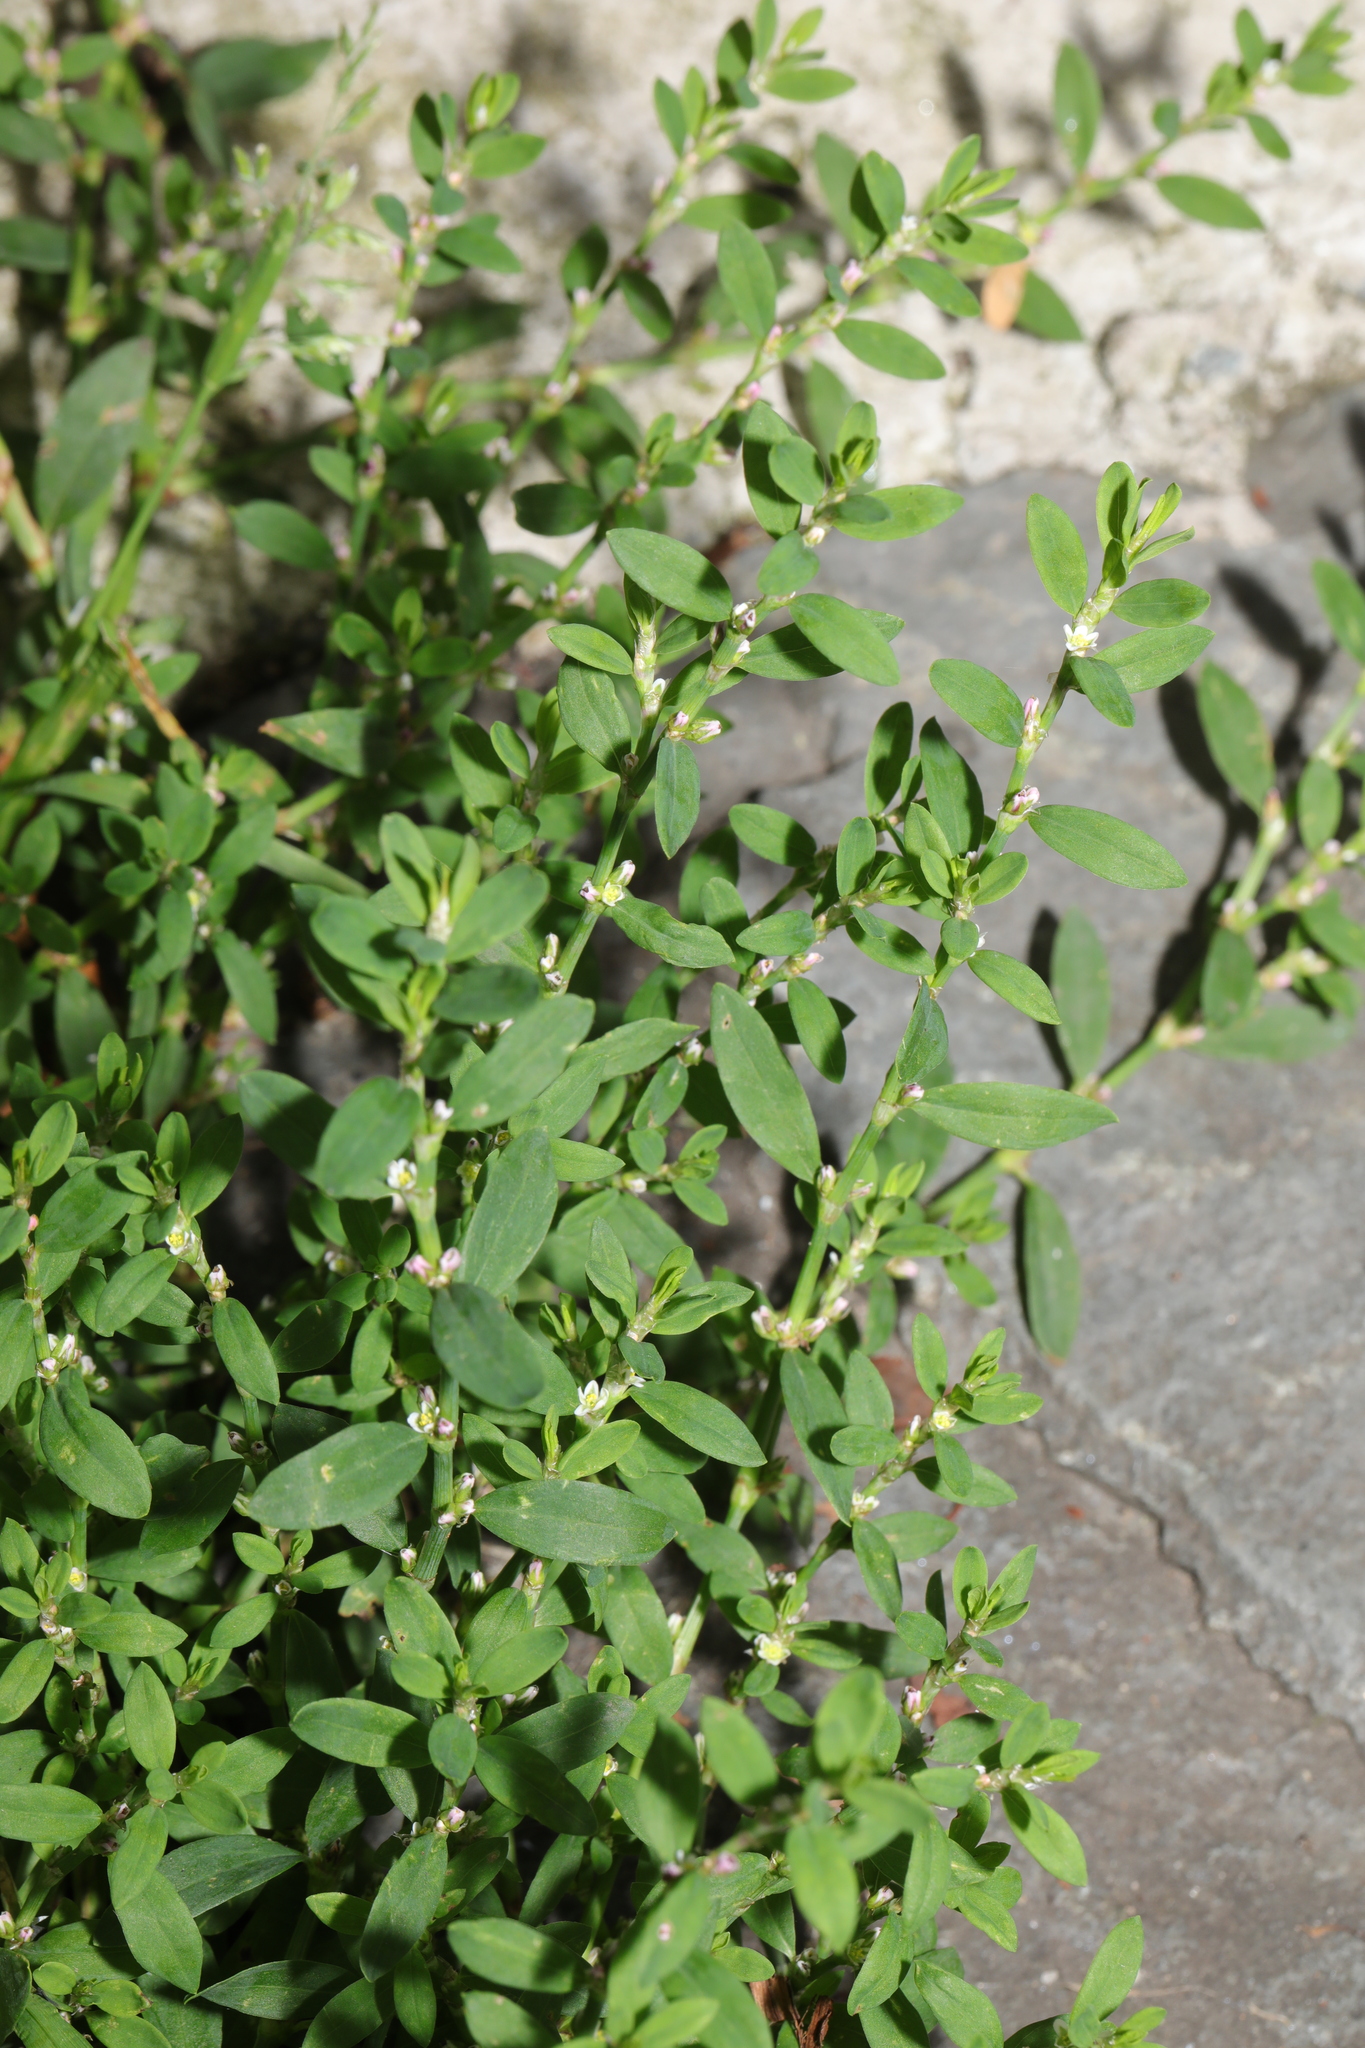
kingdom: Plantae
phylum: Tracheophyta
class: Magnoliopsida
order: Caryophyllales
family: Polygonaceae
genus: Polygonum
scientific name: Polygonum aviculare
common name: Prostrate knotweed
